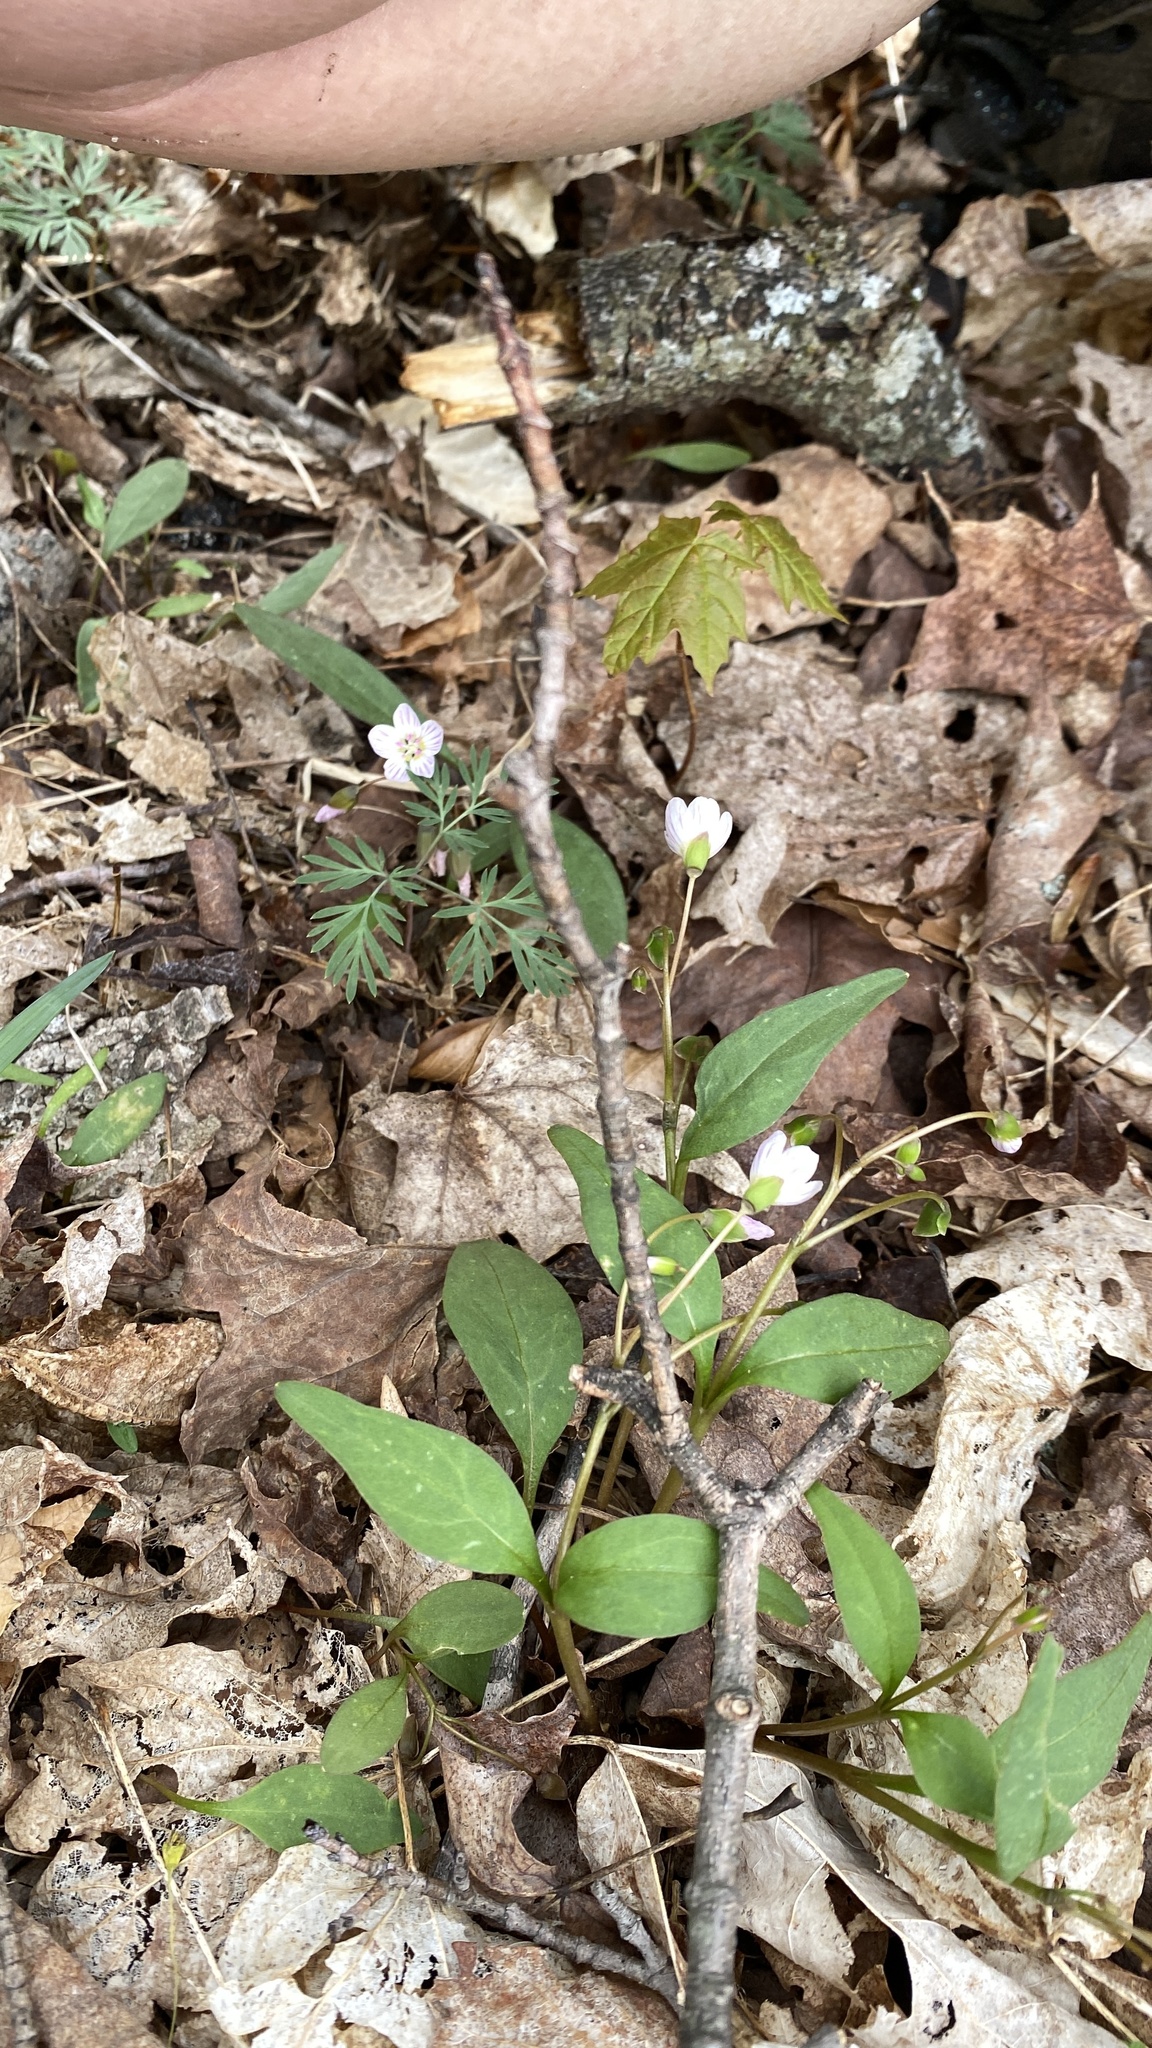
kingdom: Plantae
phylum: Tracheophyta
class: Magnoliopsida
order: Caryophyllales
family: Montiaceae
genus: Claytonia
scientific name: Claytonia caroliniana
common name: Carolina spring beauty
